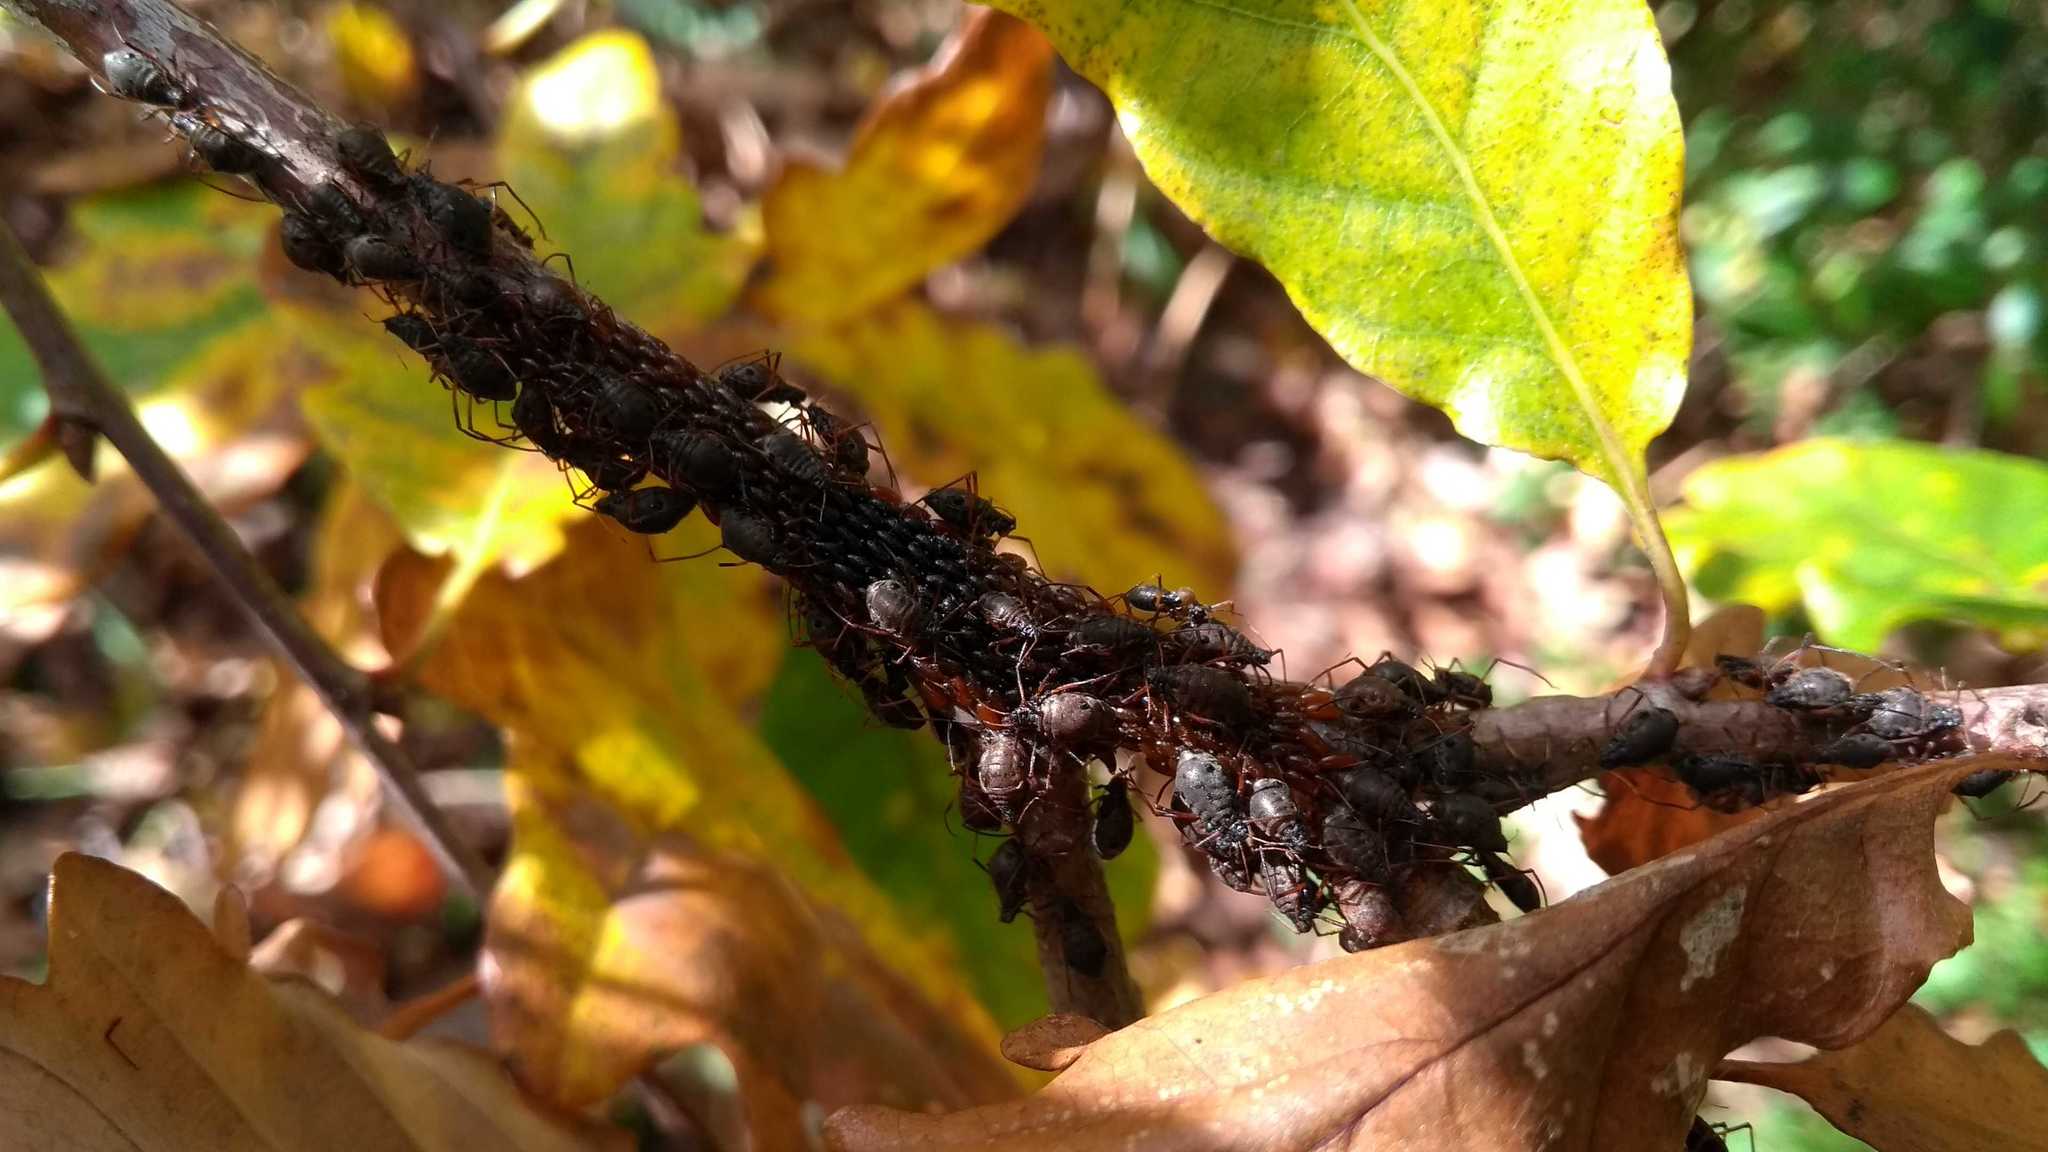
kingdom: Animalia
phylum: Arthropoda
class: Insecta
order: Hemiptera
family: Aphididae
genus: Lachnus
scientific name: Lachnus roboris
